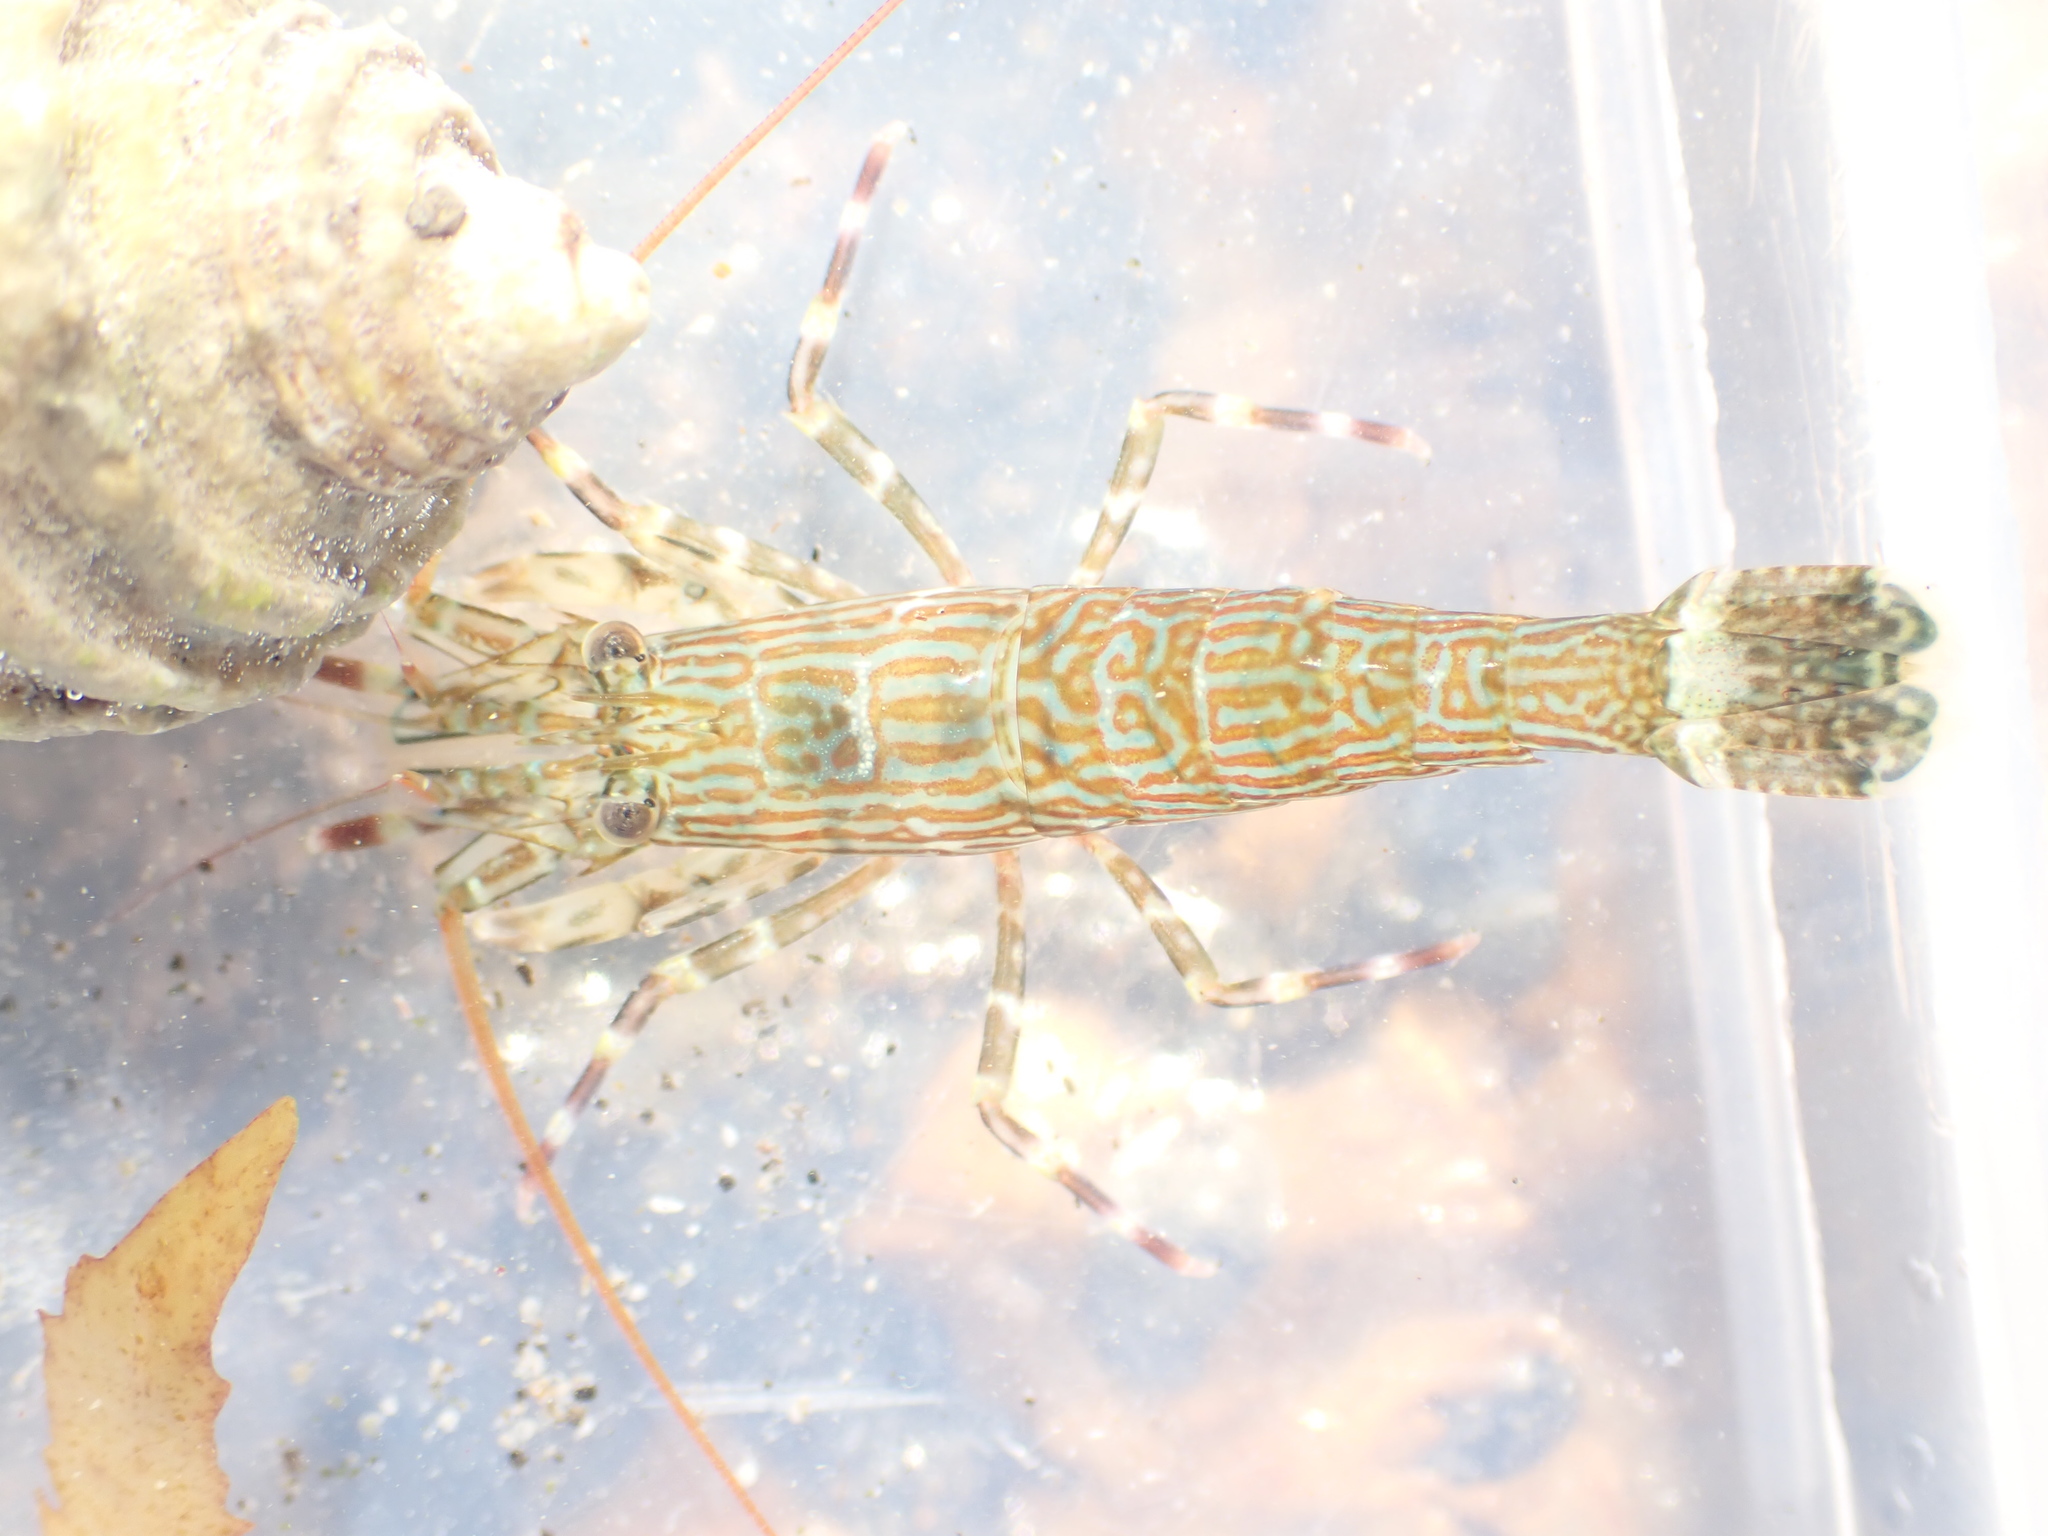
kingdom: Animalia
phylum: Arthropoda
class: Malacostraca
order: Decapoda
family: Hippolytidae
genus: Alope
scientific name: Alope spinifrons
